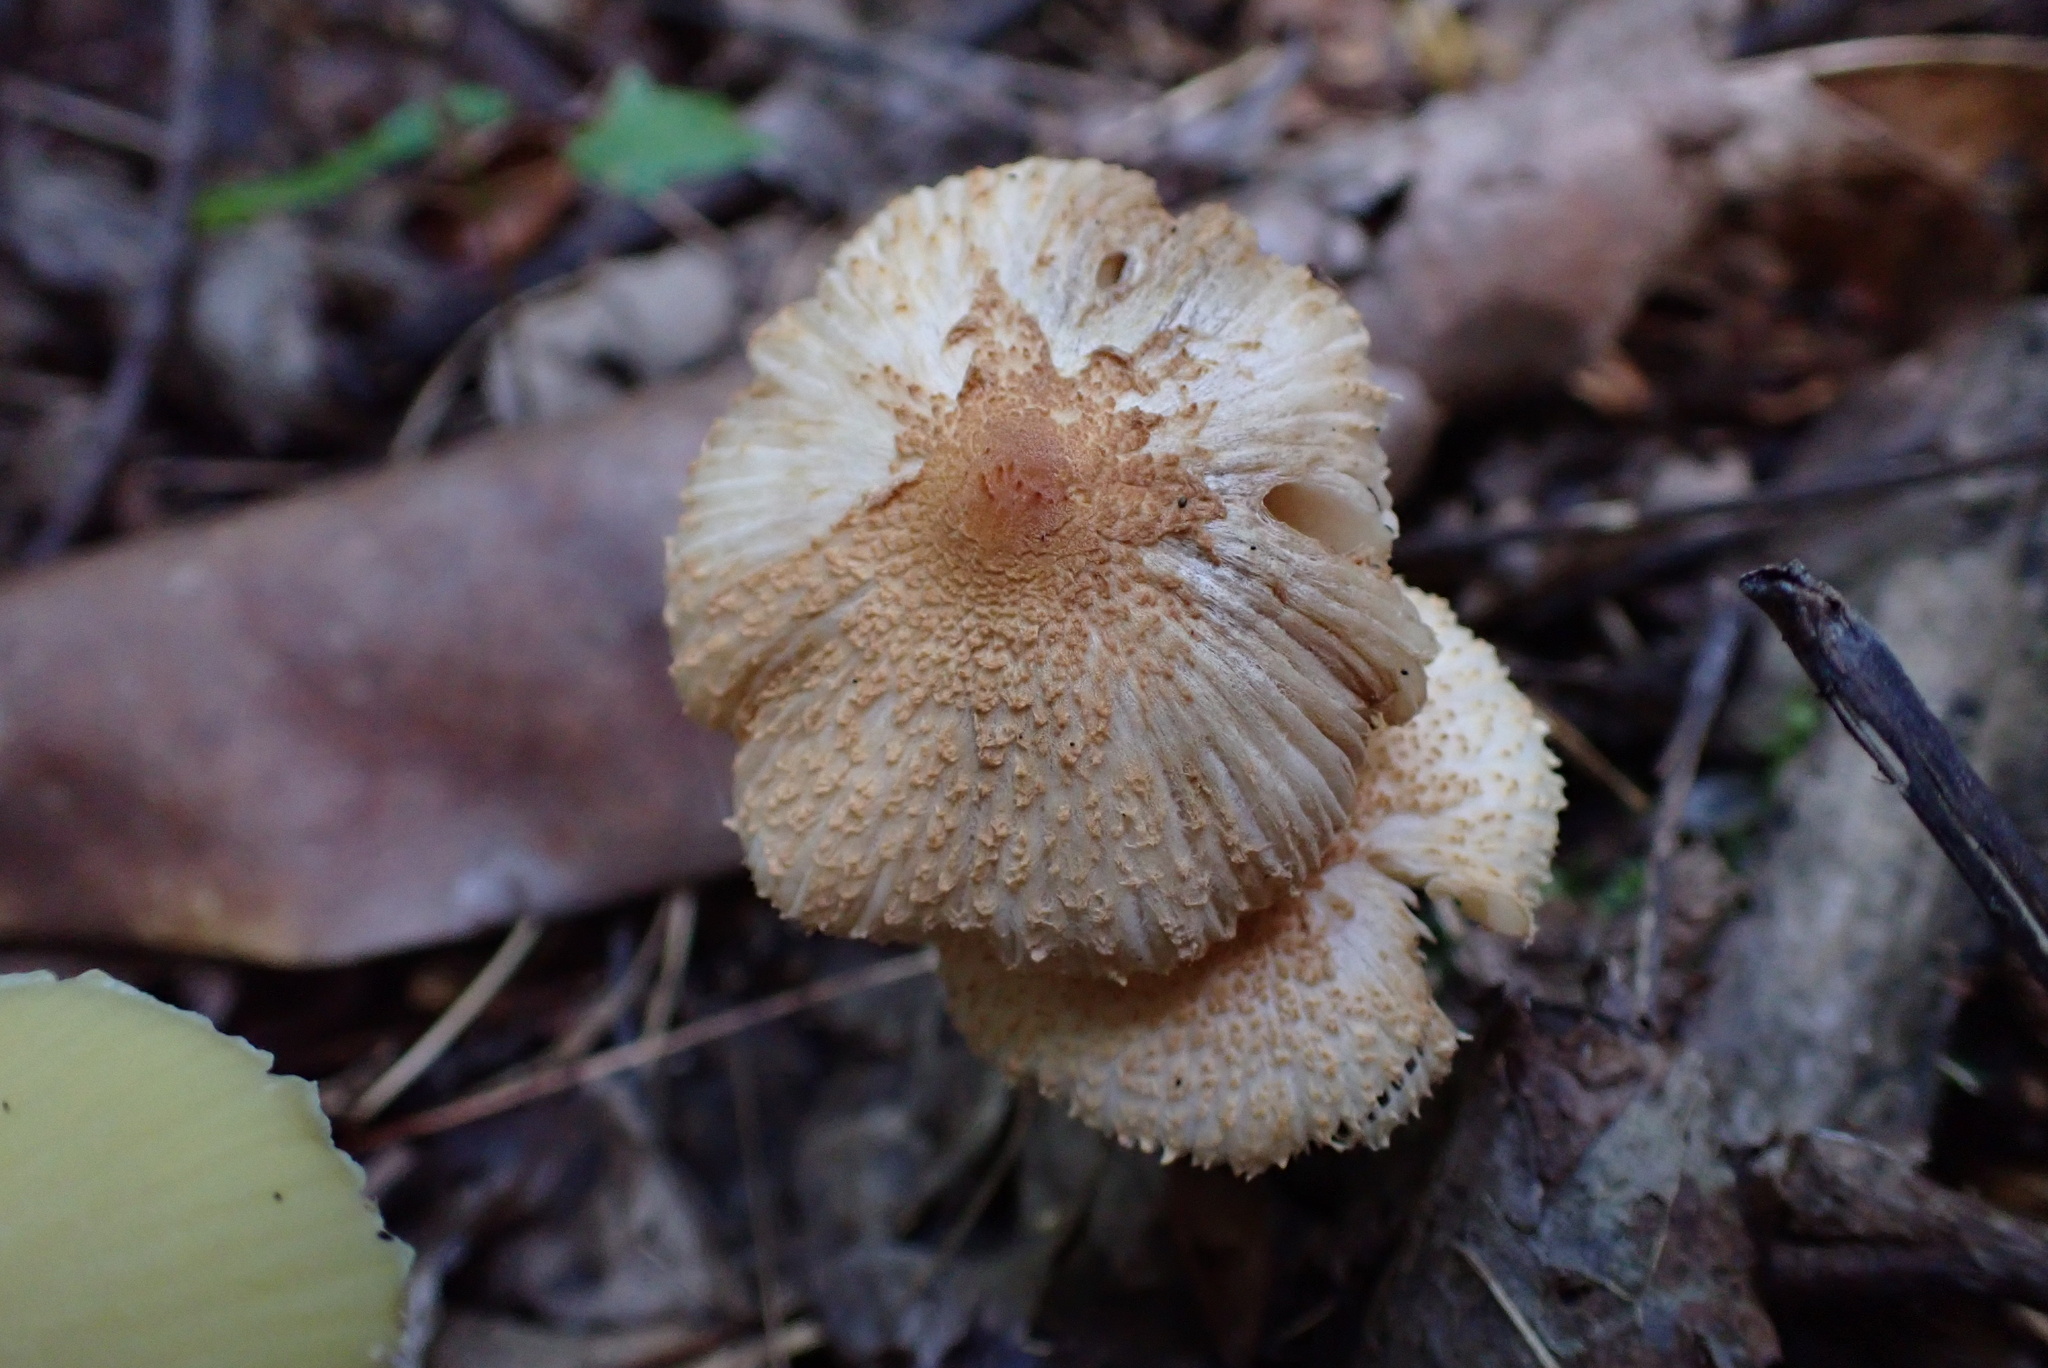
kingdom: Fungi
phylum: Basidiomycota
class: Agaricomycetes
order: Agaricales
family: Agaricaceae
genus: Lepiota
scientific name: Lepiota clypeolaria
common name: Shield dapperling
